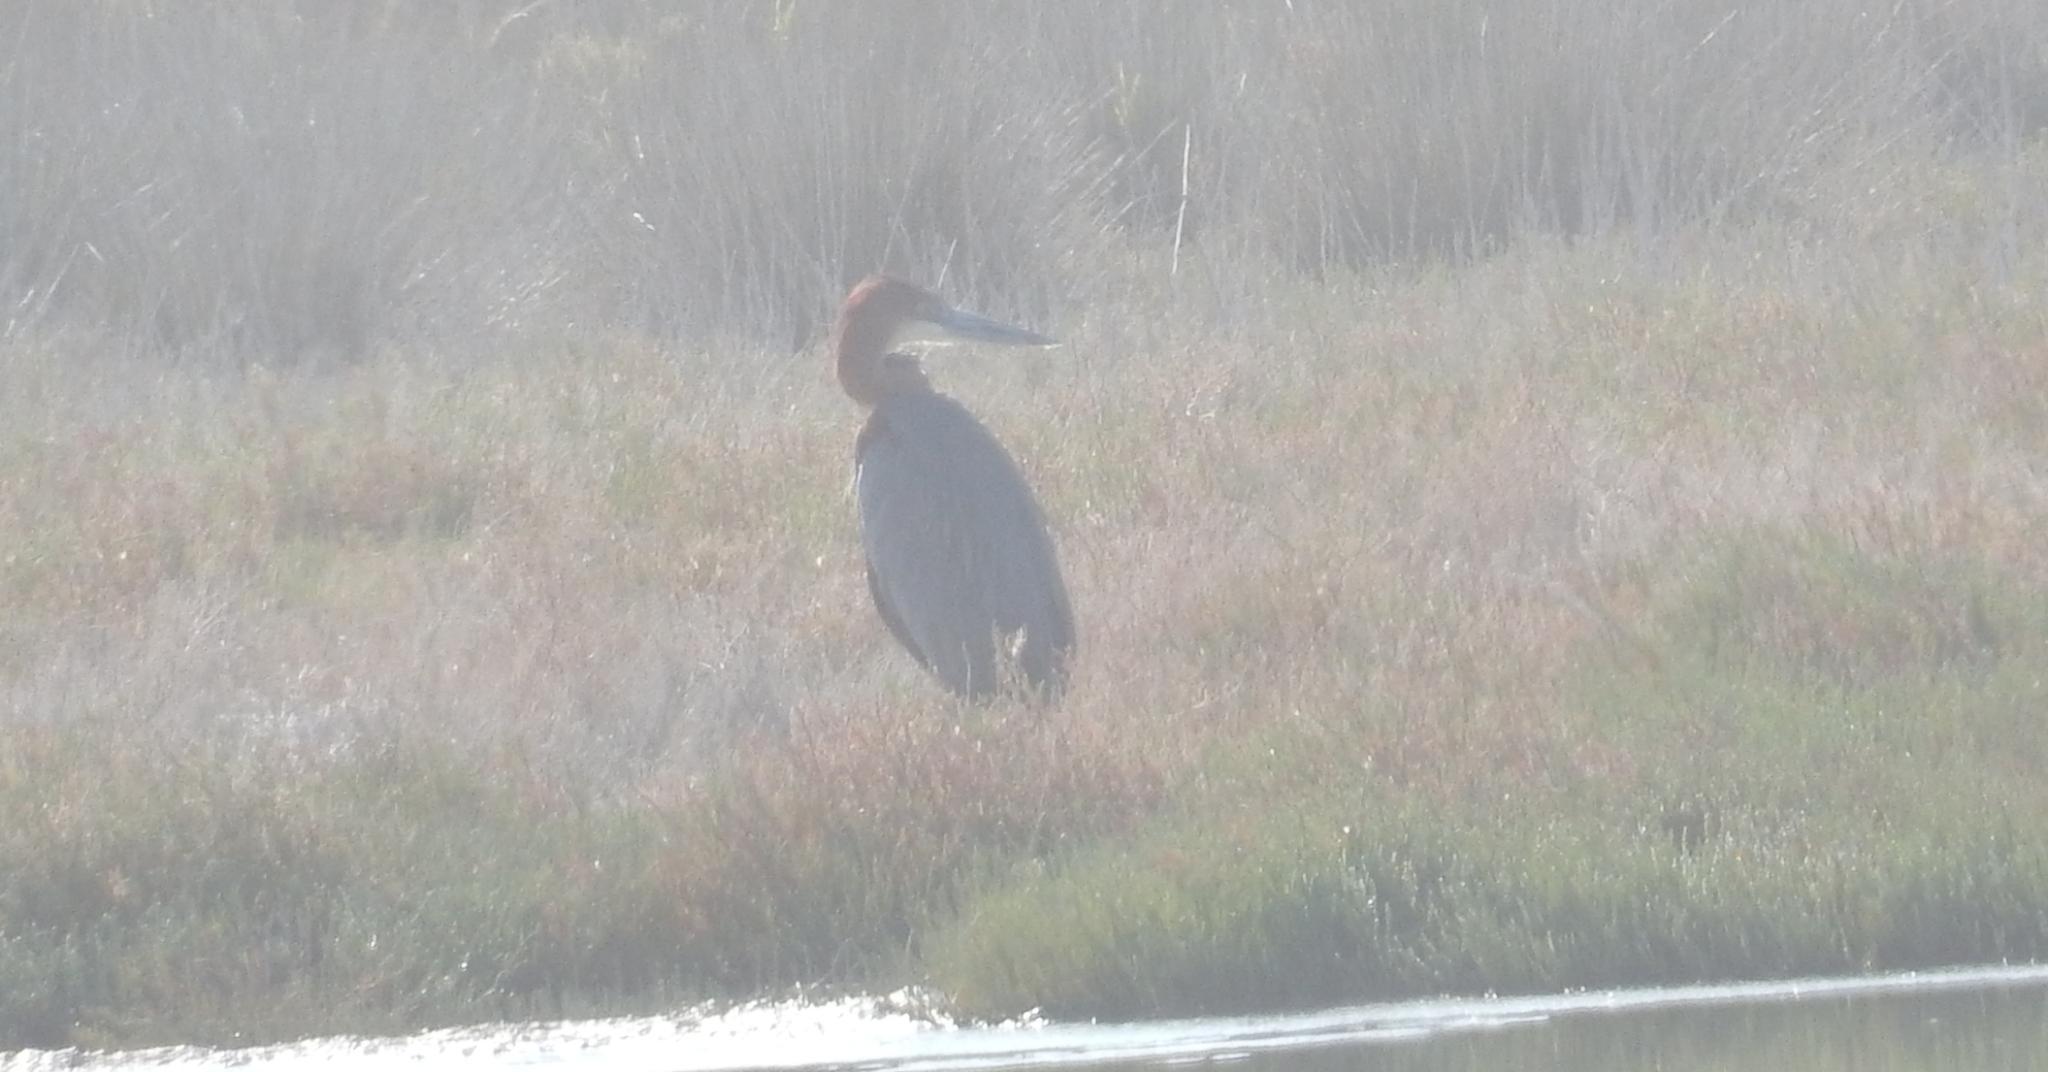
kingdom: Animalia
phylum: Chordata
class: Aves
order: Pelecaniformes
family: Ardeidae
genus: Ardea
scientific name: Ardea goliath
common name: Goliath heron
